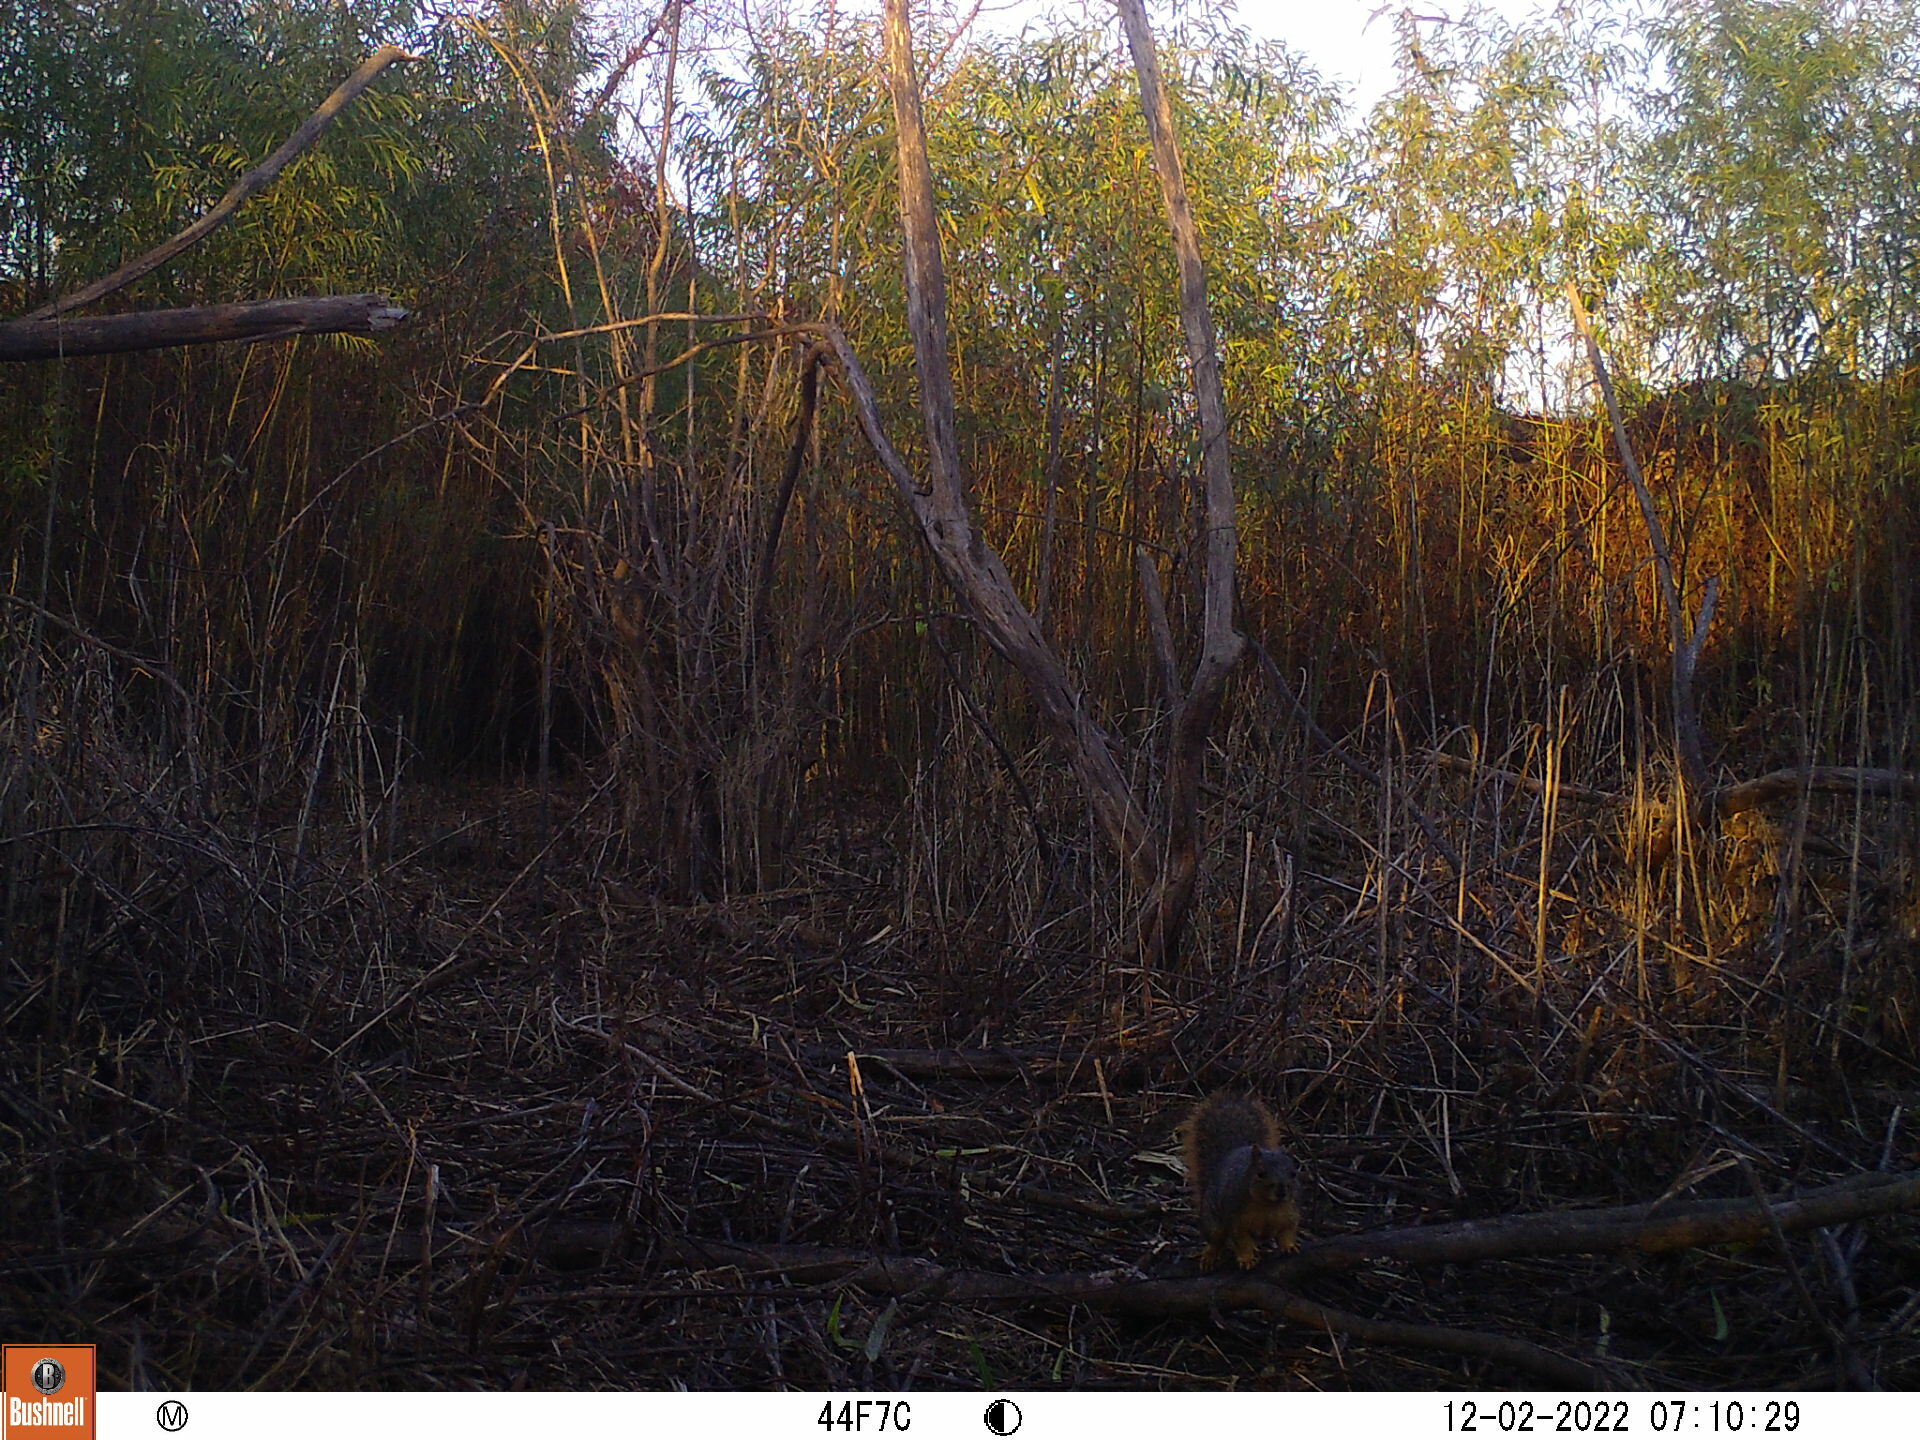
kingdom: Animalia
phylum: Chordata
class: Mammalia
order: Rodentia
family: Sciuridae
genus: Sciurus
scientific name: Sciurus niger
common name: Fox squirrel
